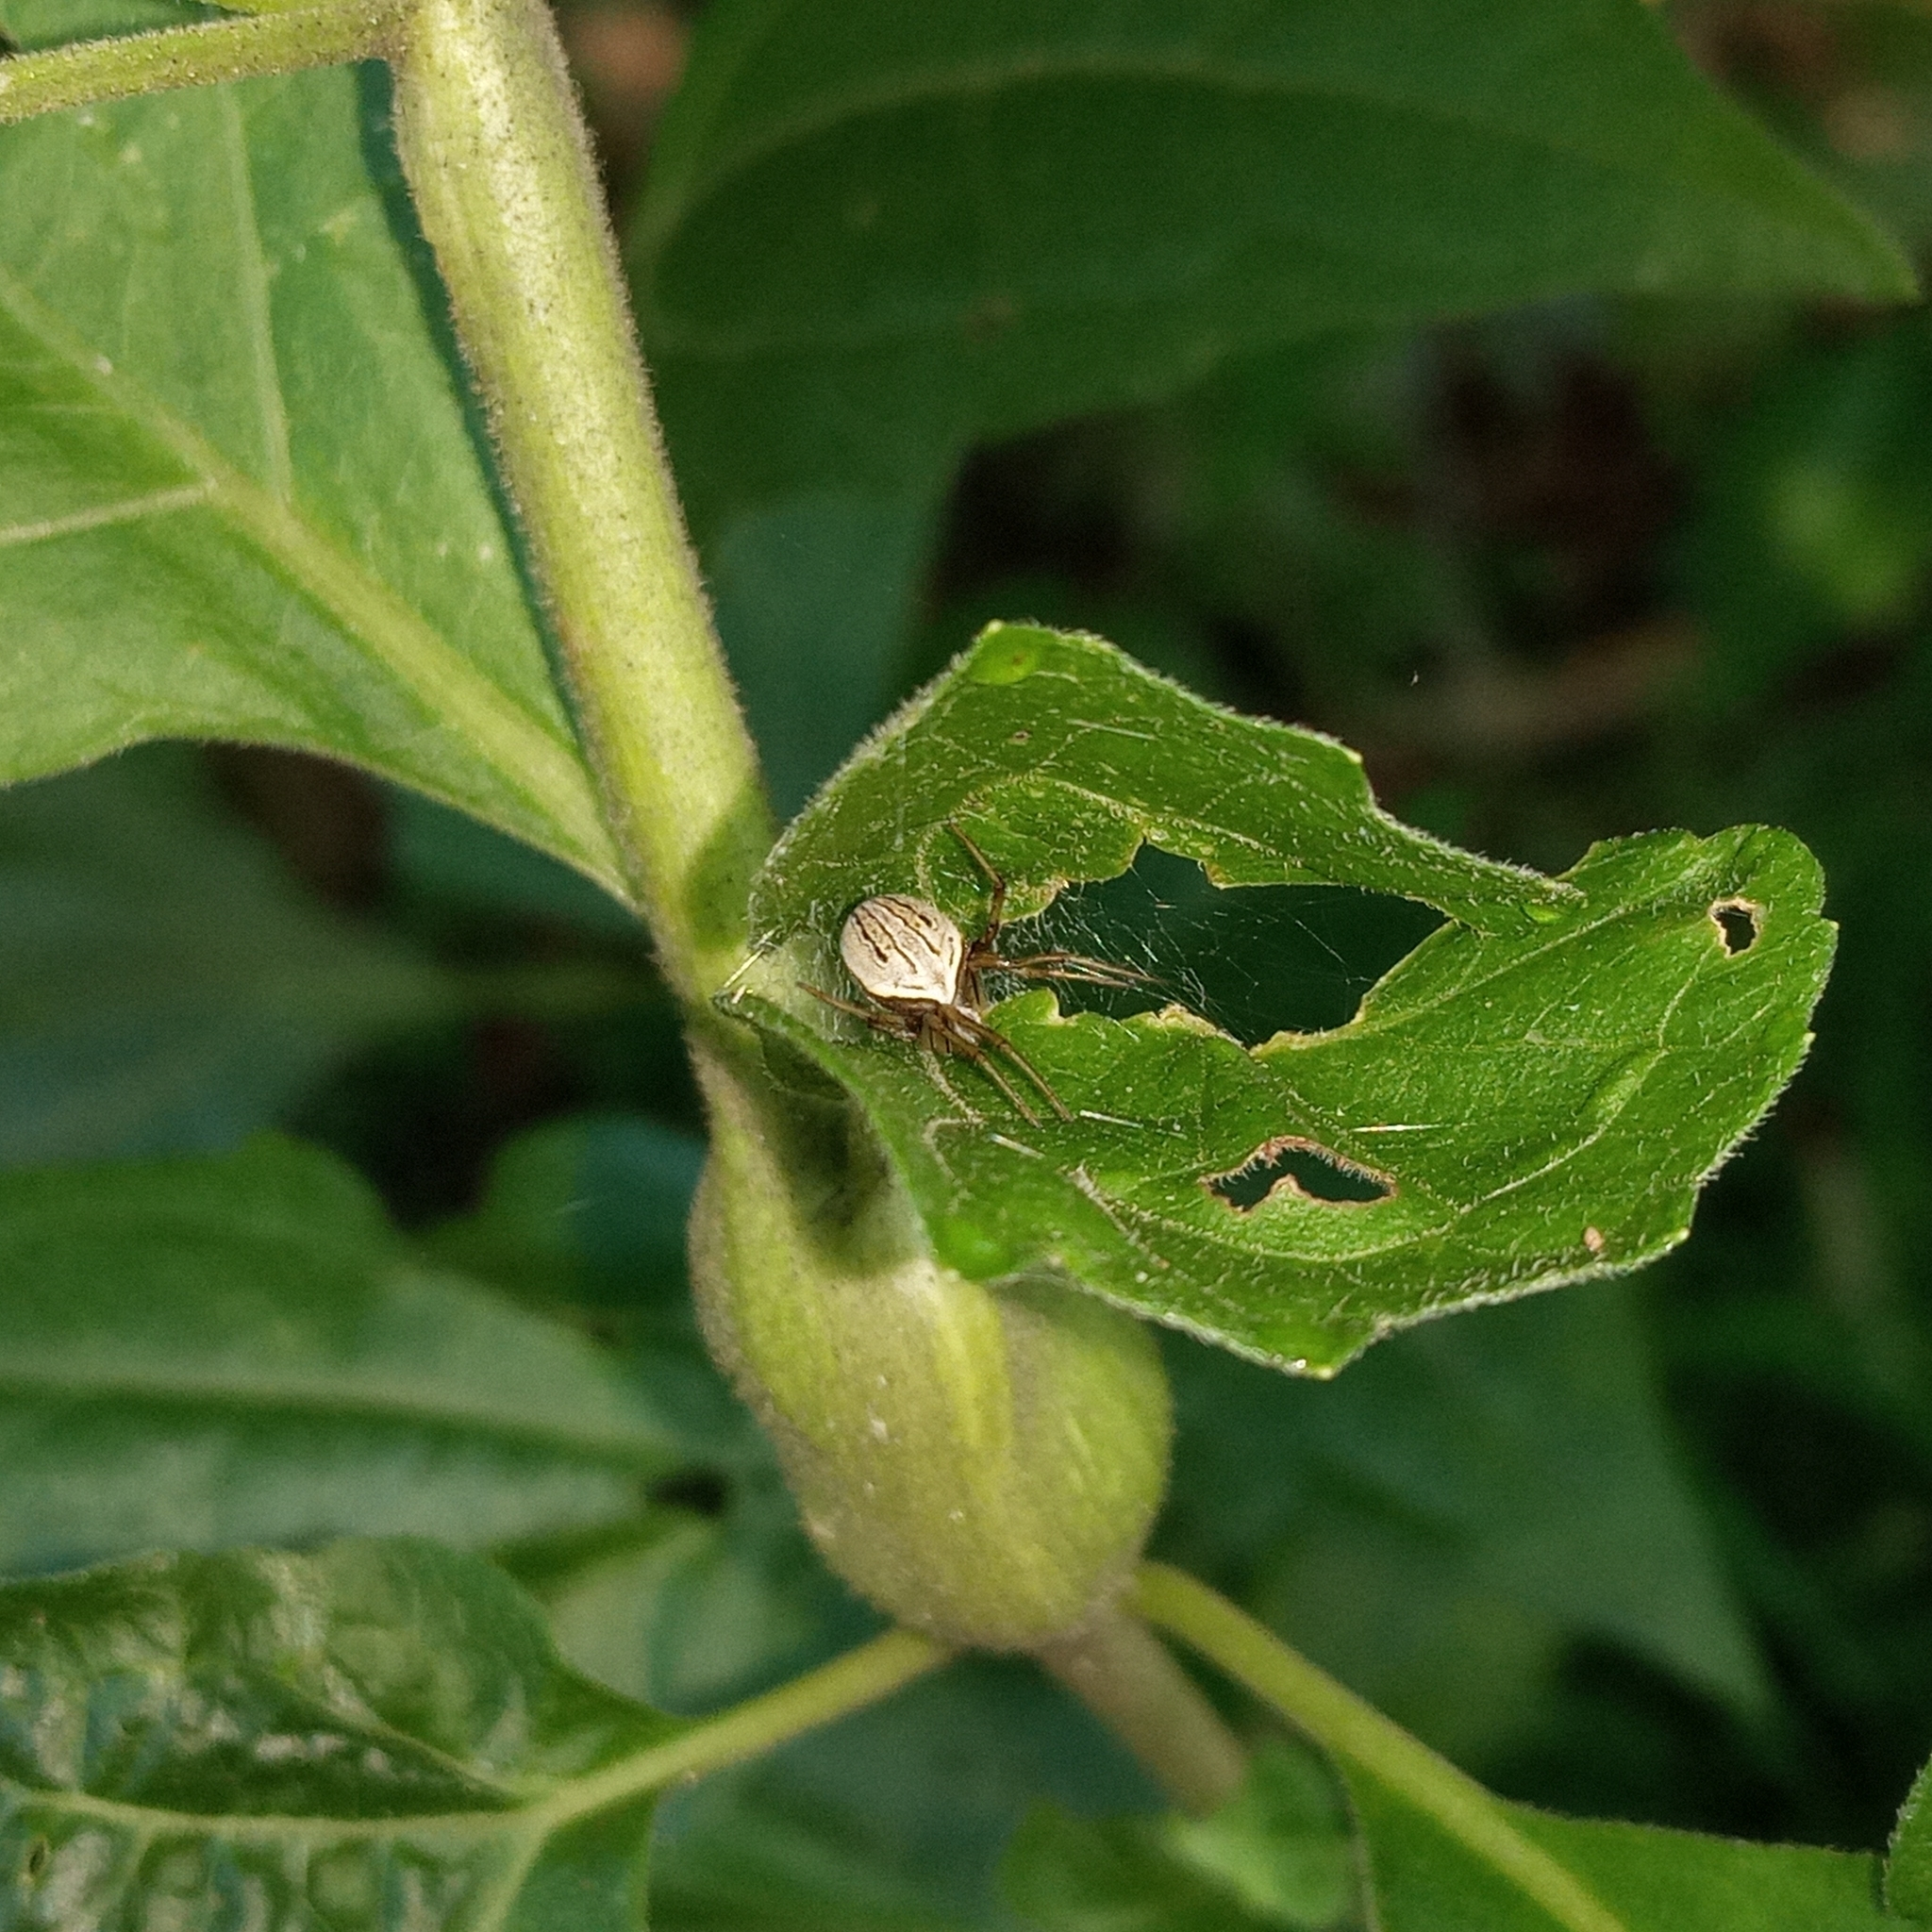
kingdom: Animalia
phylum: Arthropoda
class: Arachnida
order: Araneae
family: Araneidae
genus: Neoscona
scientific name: Neoscona molemensis
